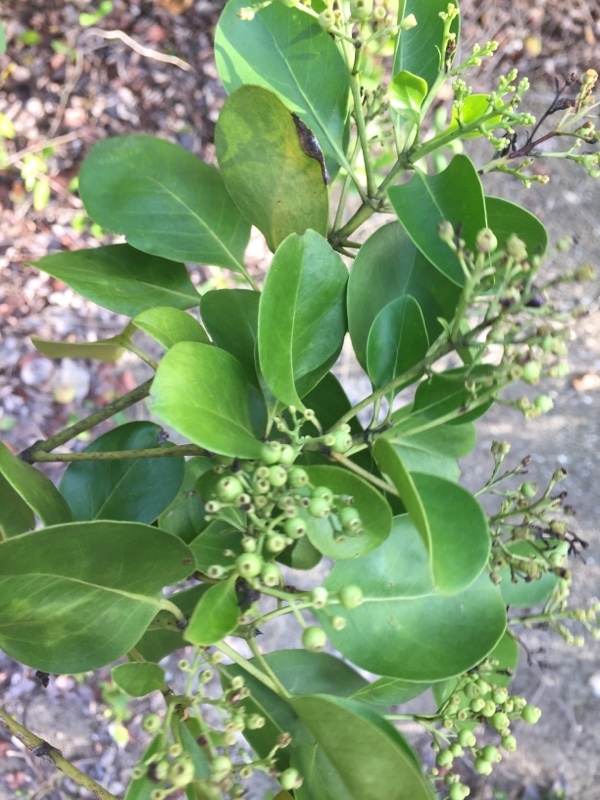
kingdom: Plantae
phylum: Tracheophyta
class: Magnoliopsida
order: Gentianales
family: Rubiaceae
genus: Erithalis
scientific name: Erithalis fruticosa
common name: Candlewood
